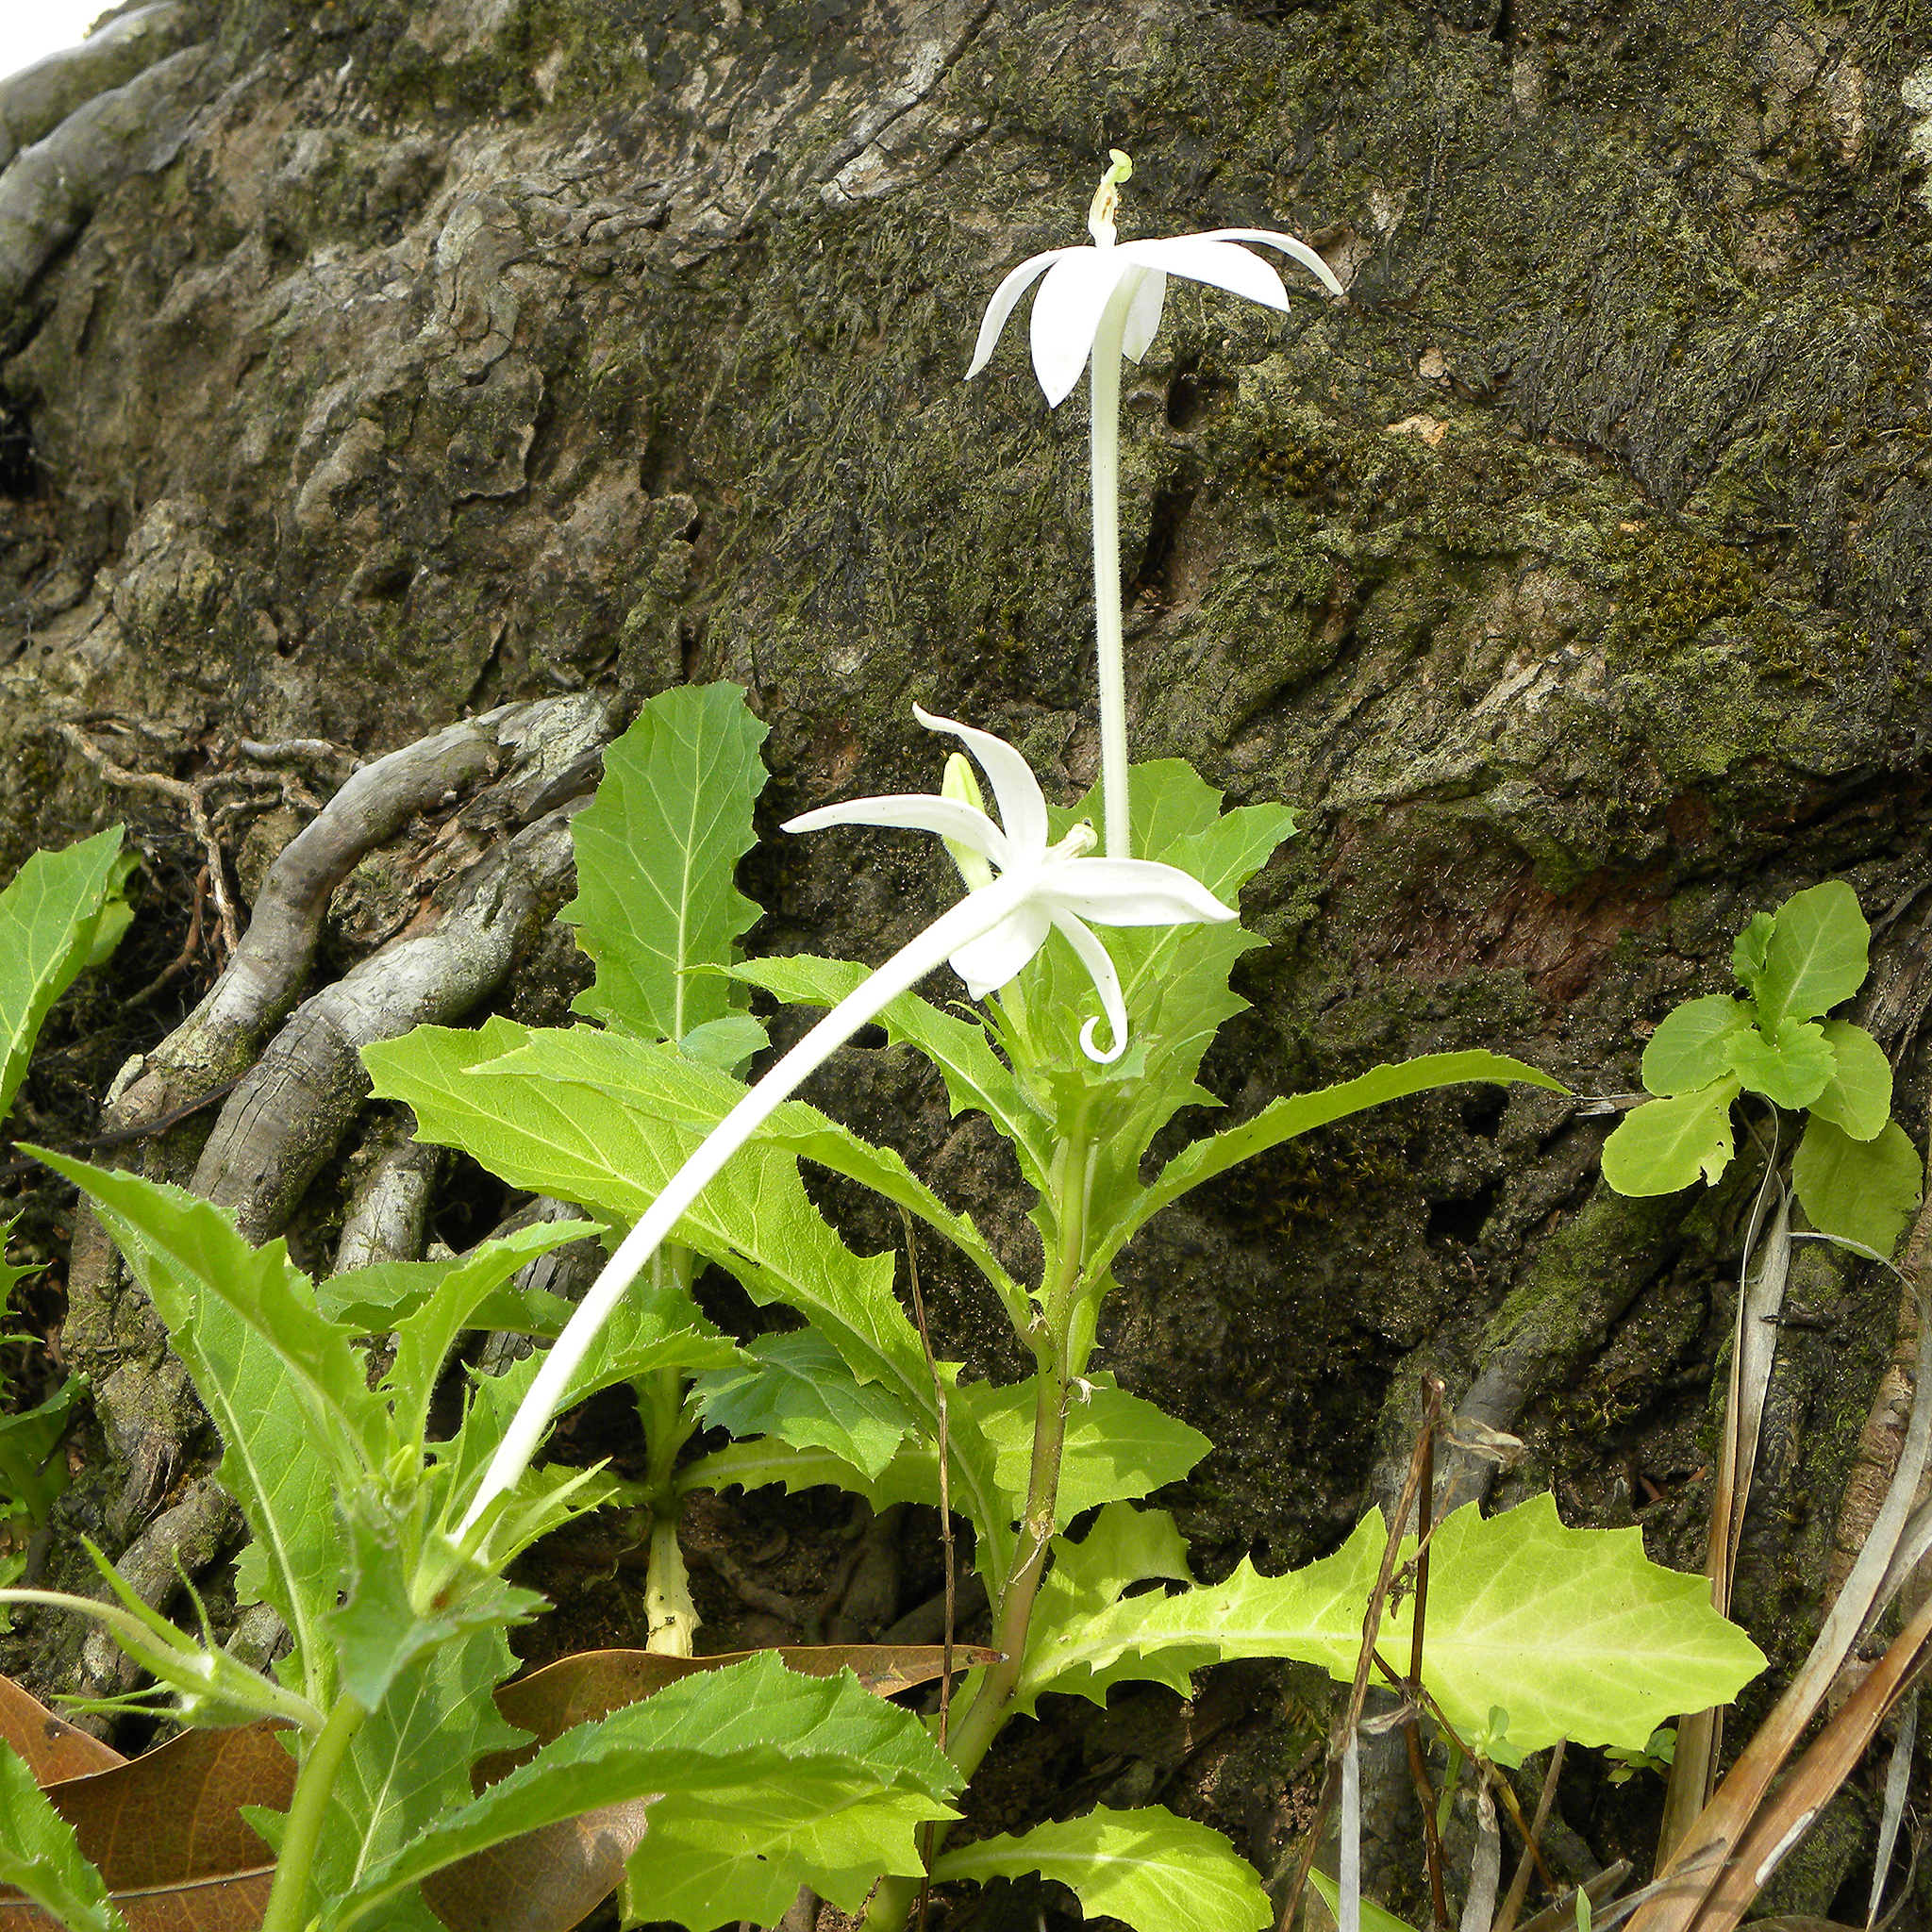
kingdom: Plantae
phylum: Tracheophyta
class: Magnoliopsida
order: Asterales
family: Campanulaceae
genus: Hippobroma
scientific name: Hippobroma longiflora
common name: Madamfate
